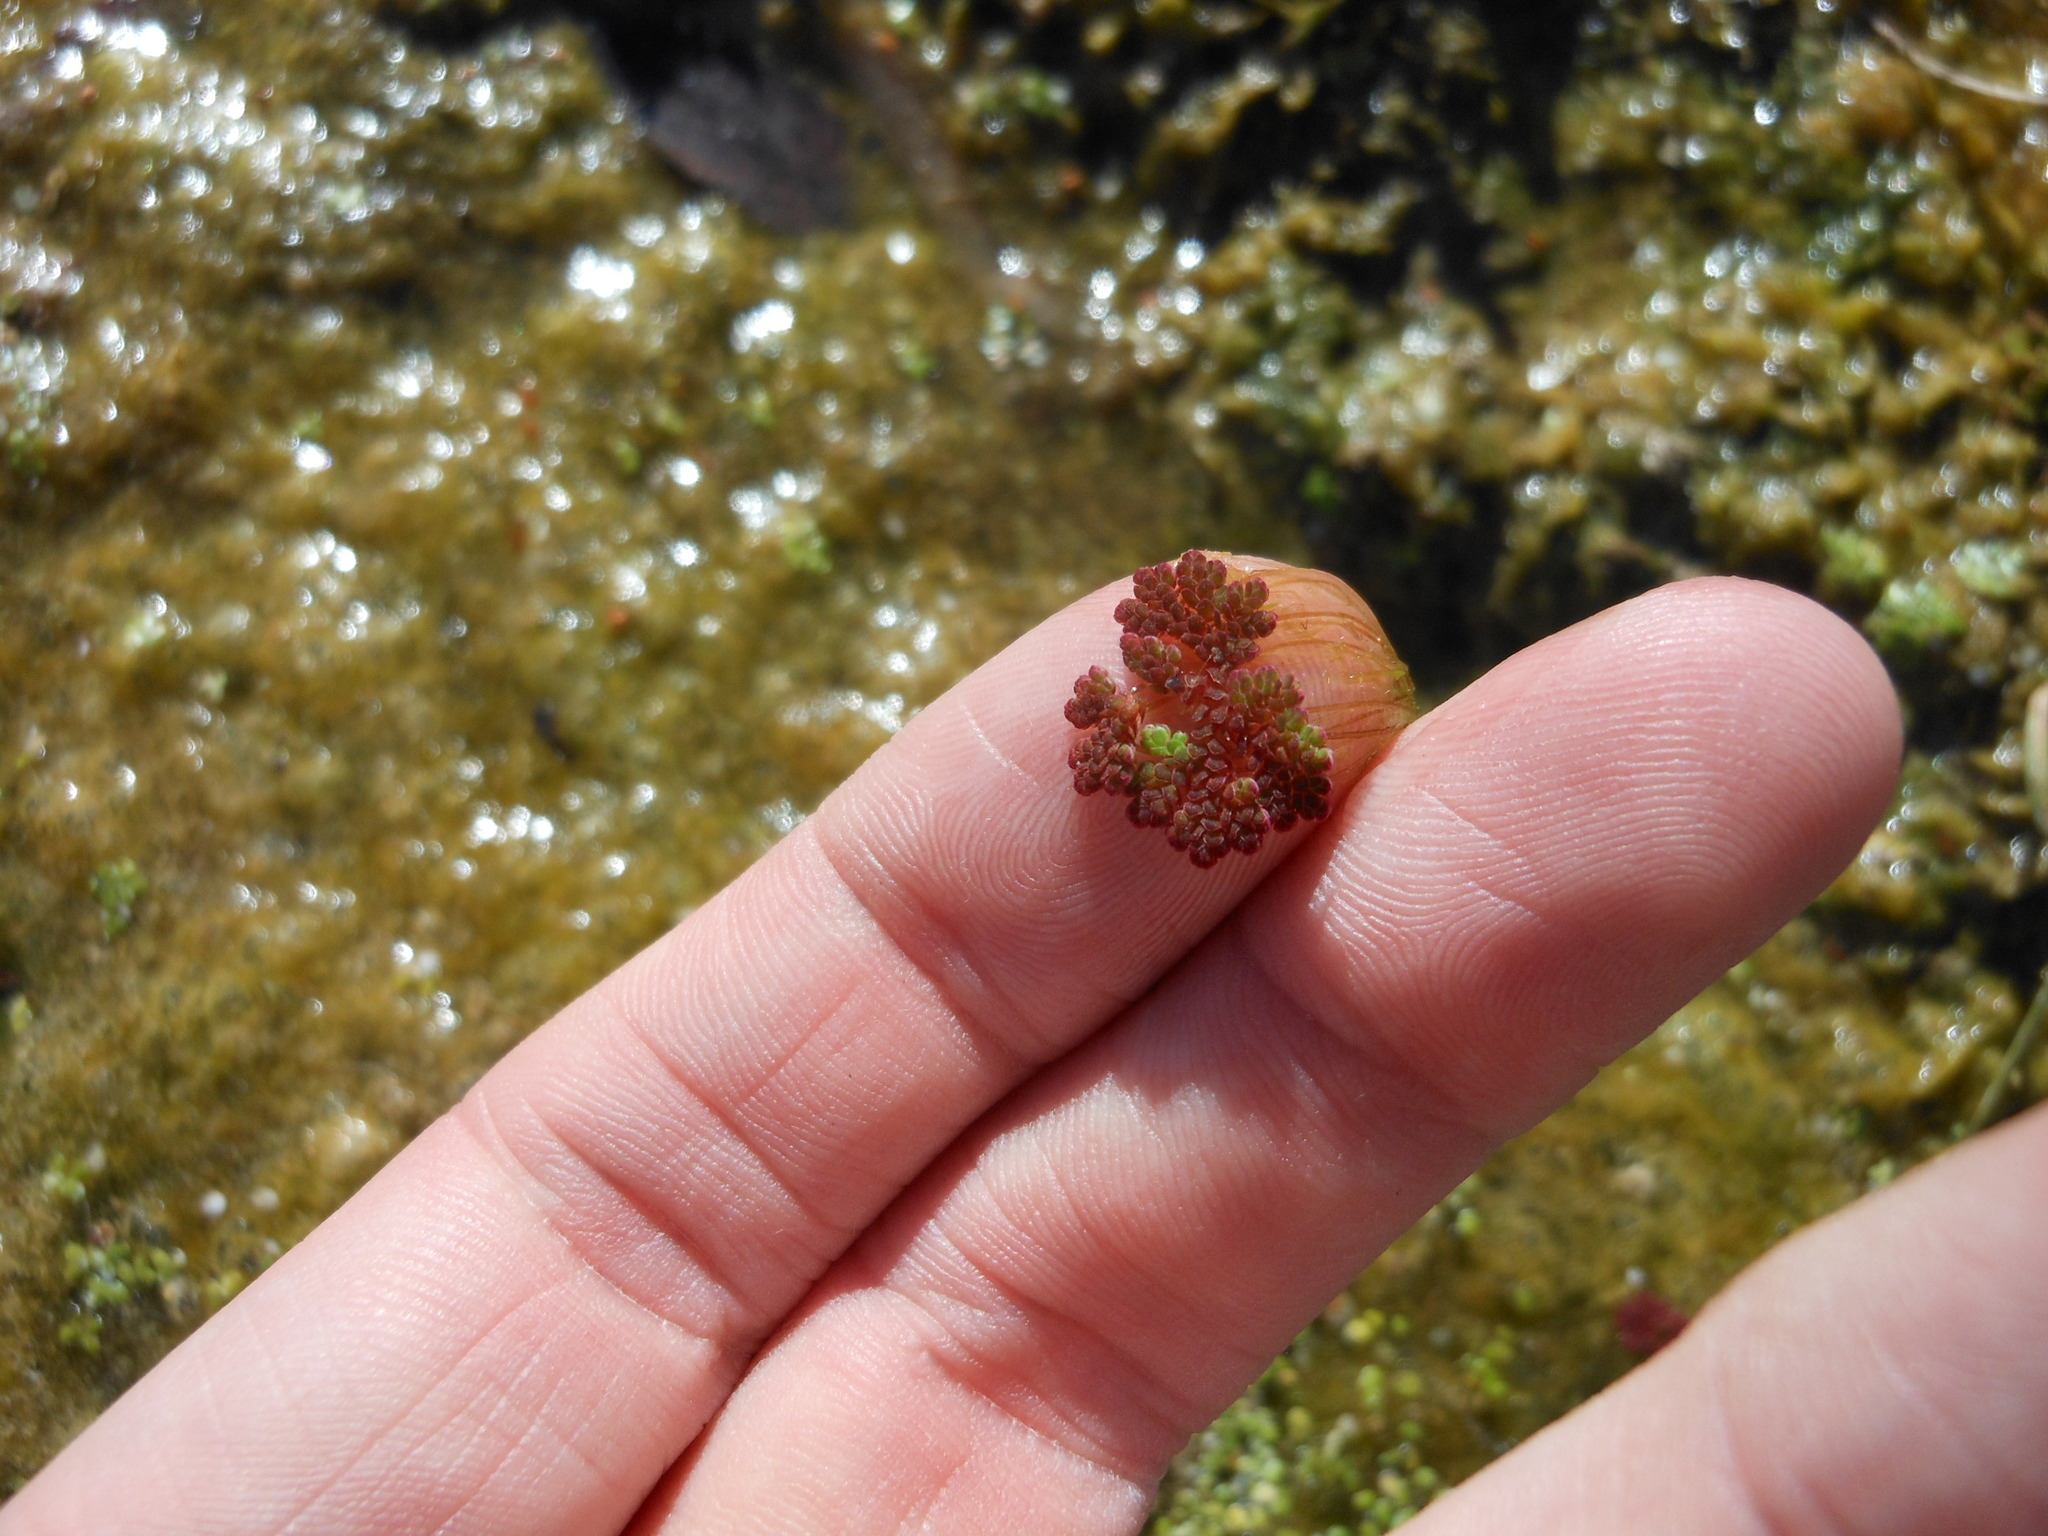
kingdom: Plantae
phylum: Tracheophyta
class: Polypodiopsida
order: Salviniales
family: Salviniaceae
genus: Azolla
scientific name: Azolla caroliniana
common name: Carolina mosquitofern
